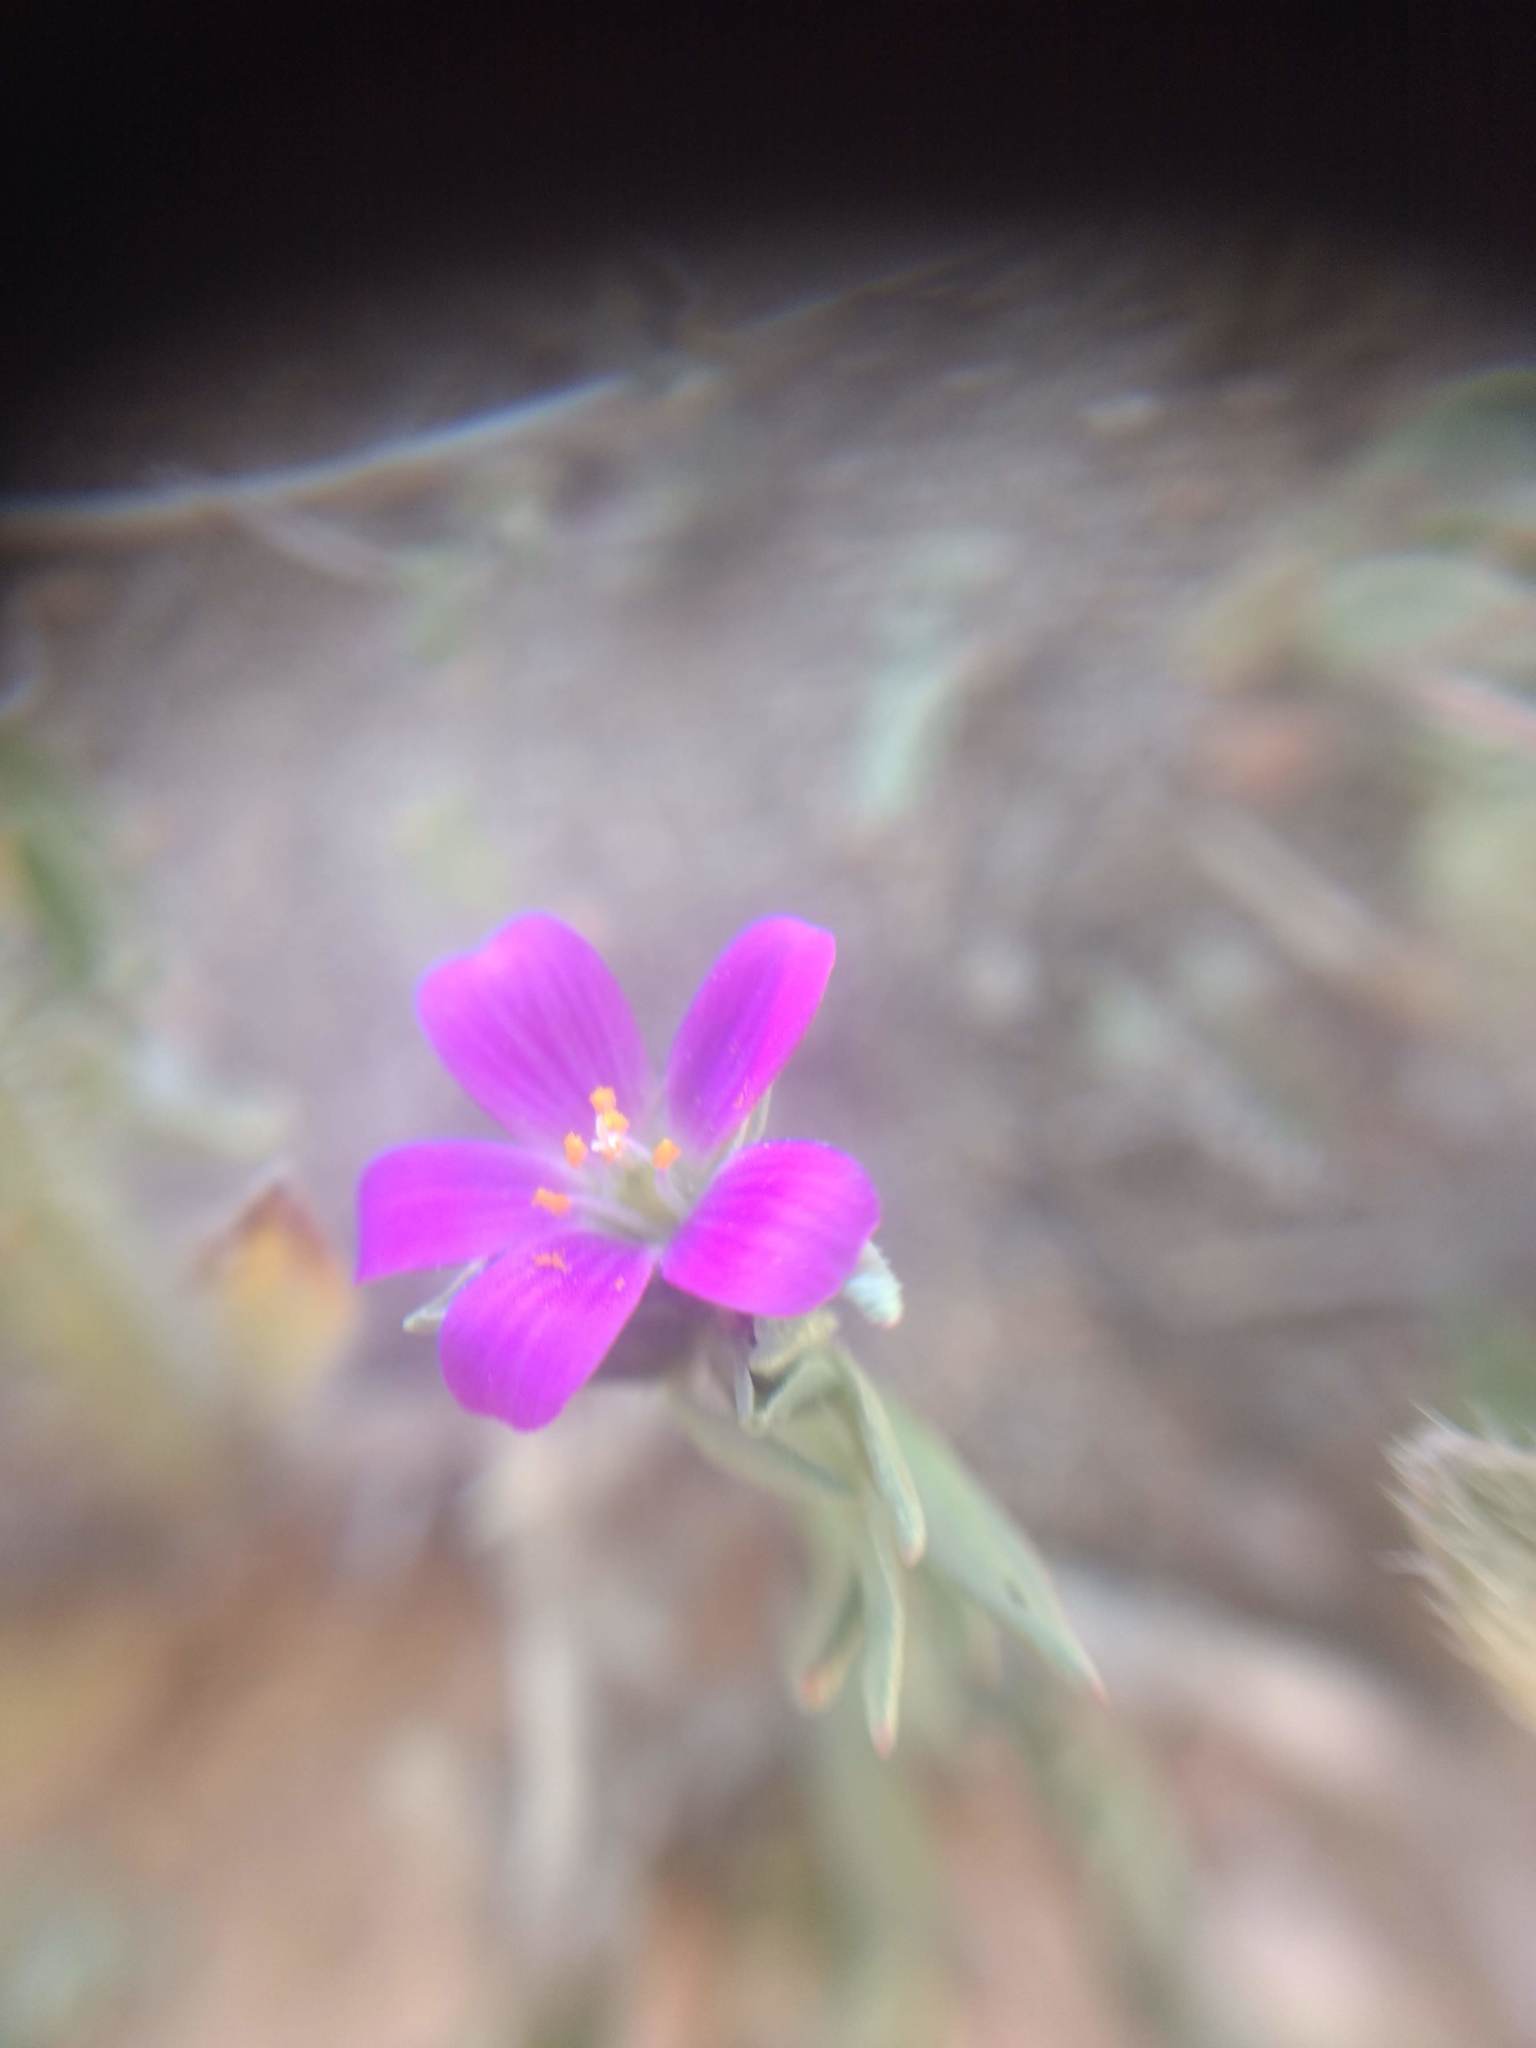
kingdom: Plantae
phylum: Tracheophyta
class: Magnoliopsida
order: Caryophyllales
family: Montiaceae
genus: Calandrinia
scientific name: Calandrinia menziesii
